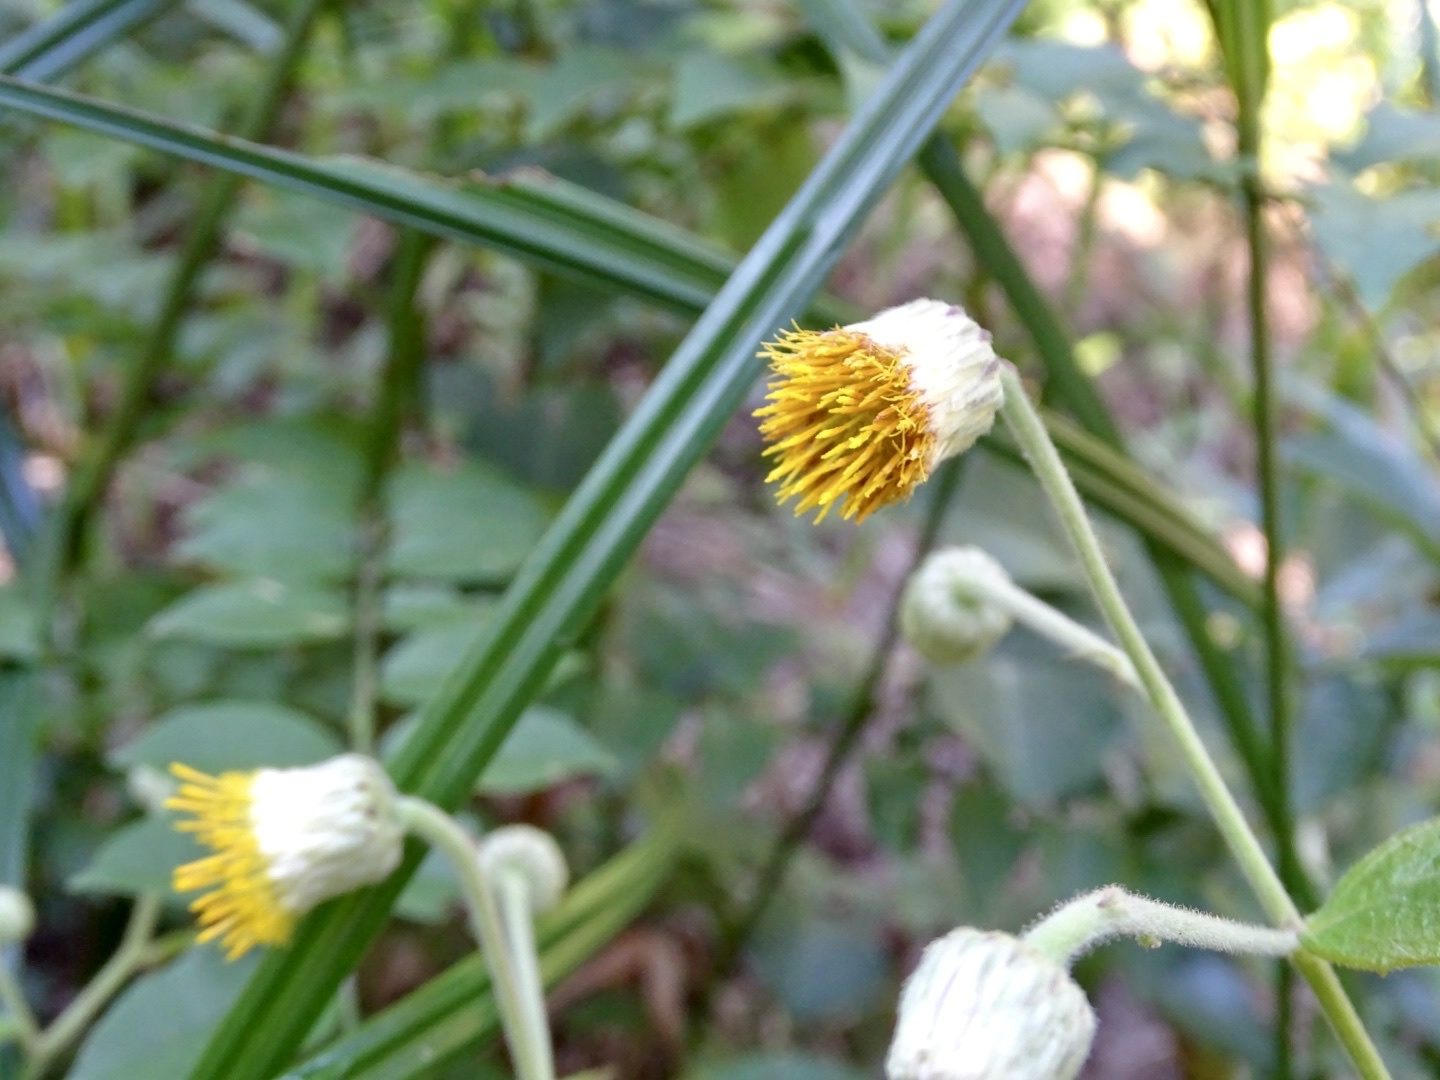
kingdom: Plantae
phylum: Tracheophyta
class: Magnoliopsida
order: Asterales
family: Asteraceae
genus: Blumea
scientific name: Blumea megacephala
